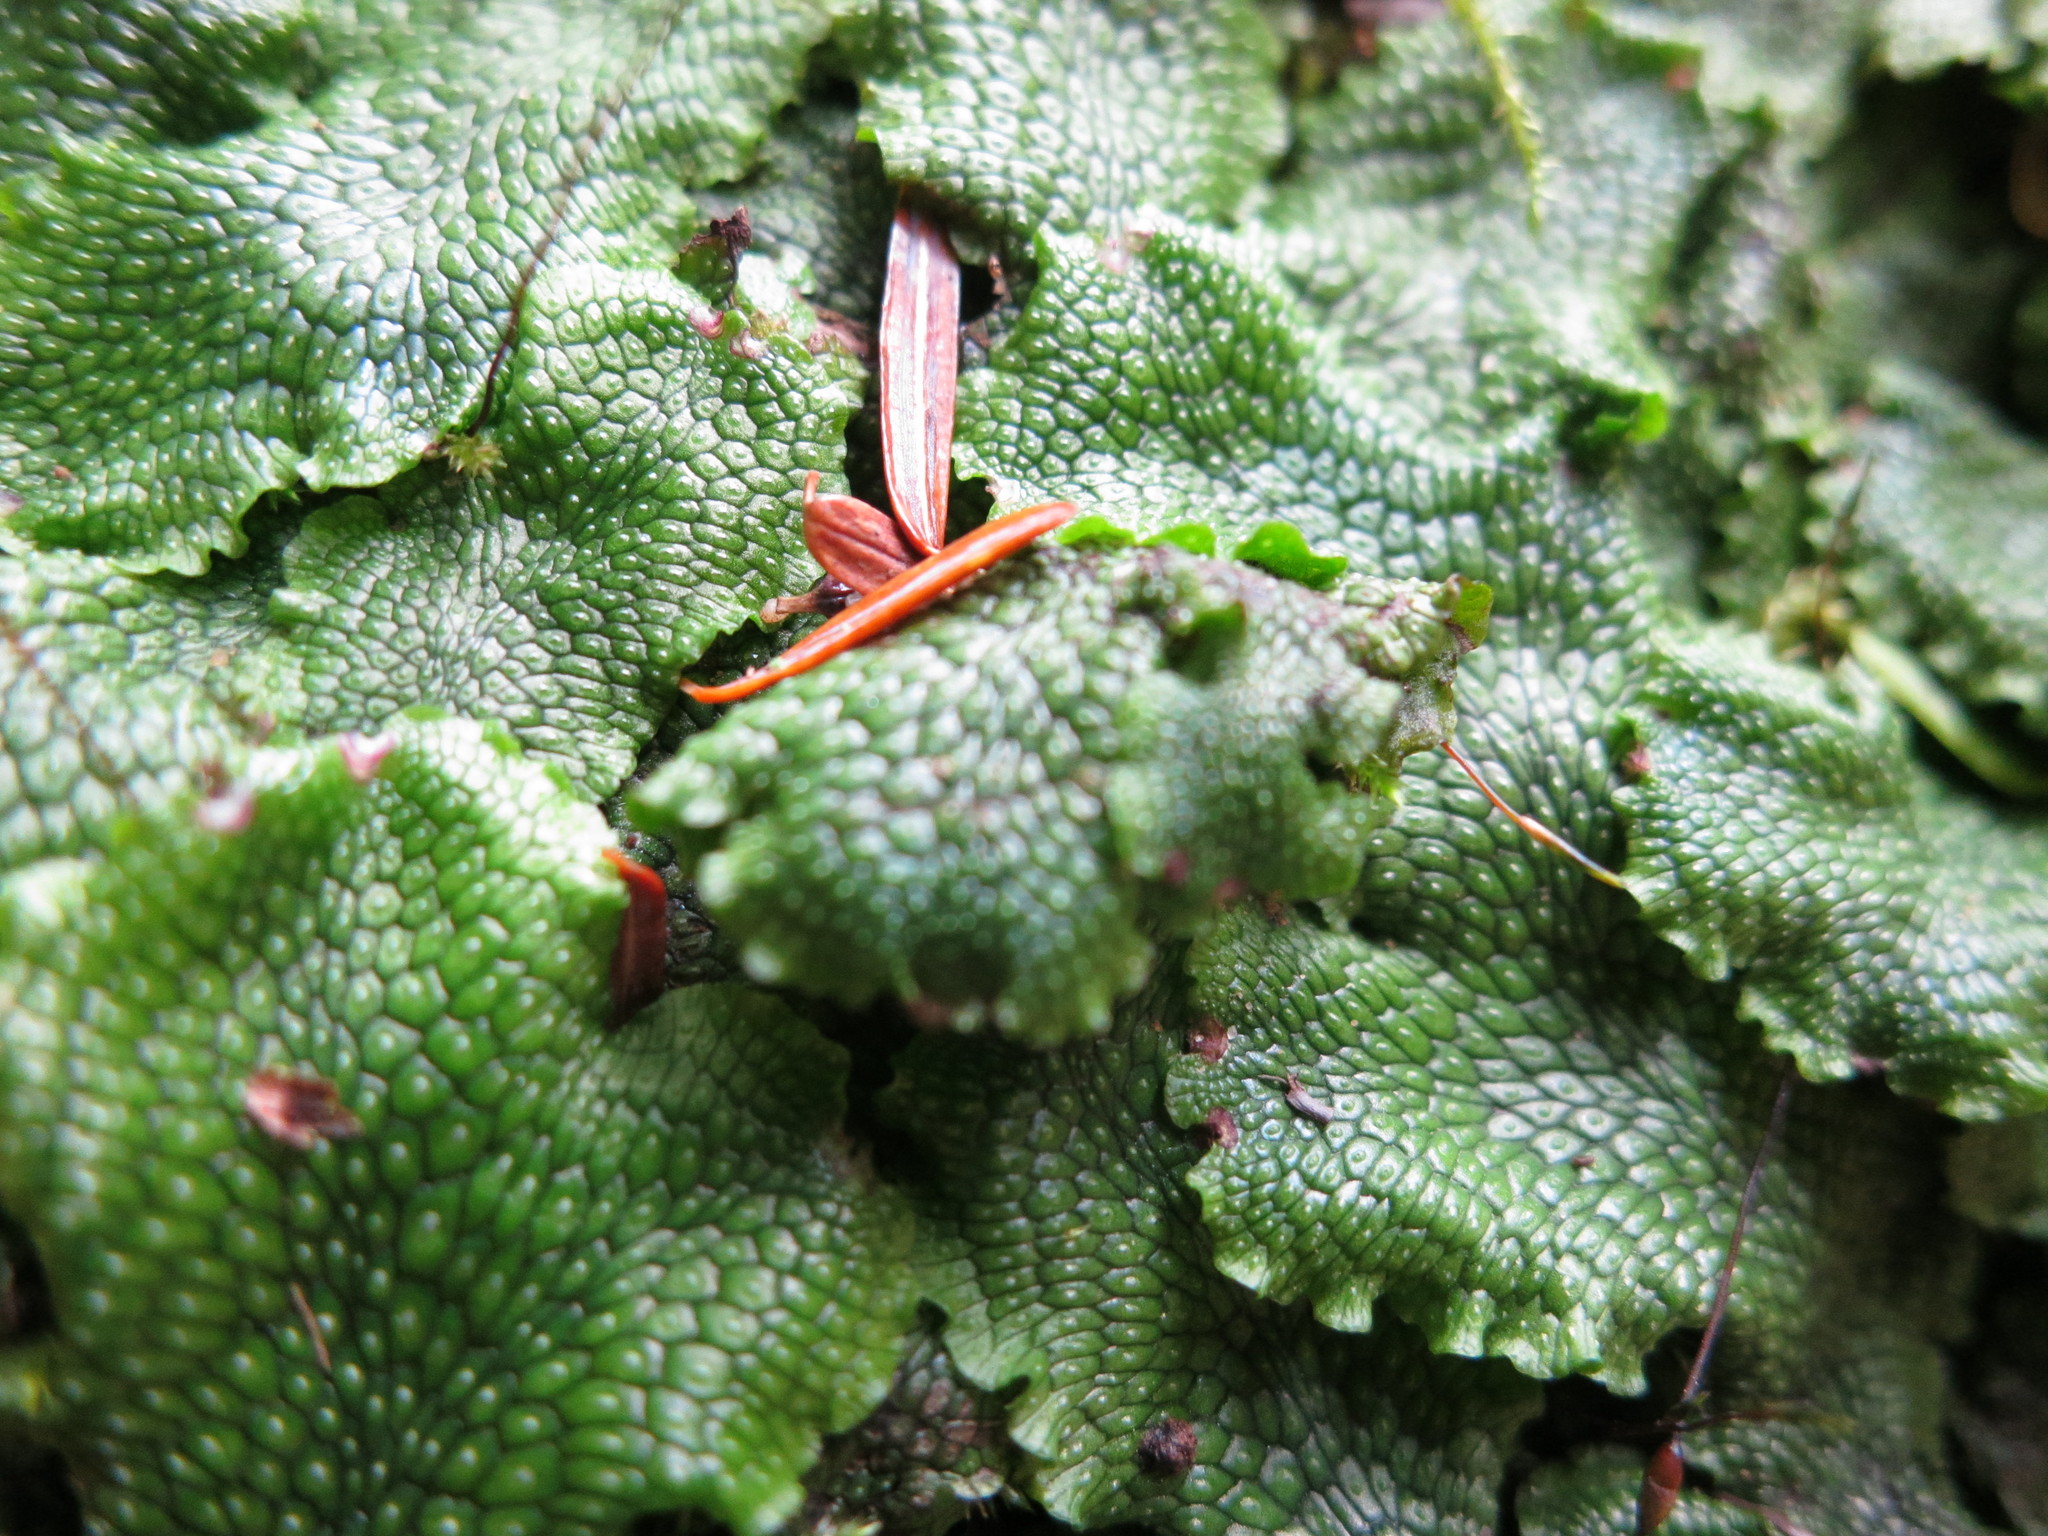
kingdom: Plantae
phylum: Marchantiophyta
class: Marchantiopsida
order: Marchantiales
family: Conocephalaceae
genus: Conocephalum
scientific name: Conocephalum salebrosum
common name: Cat-tongue liverwort
